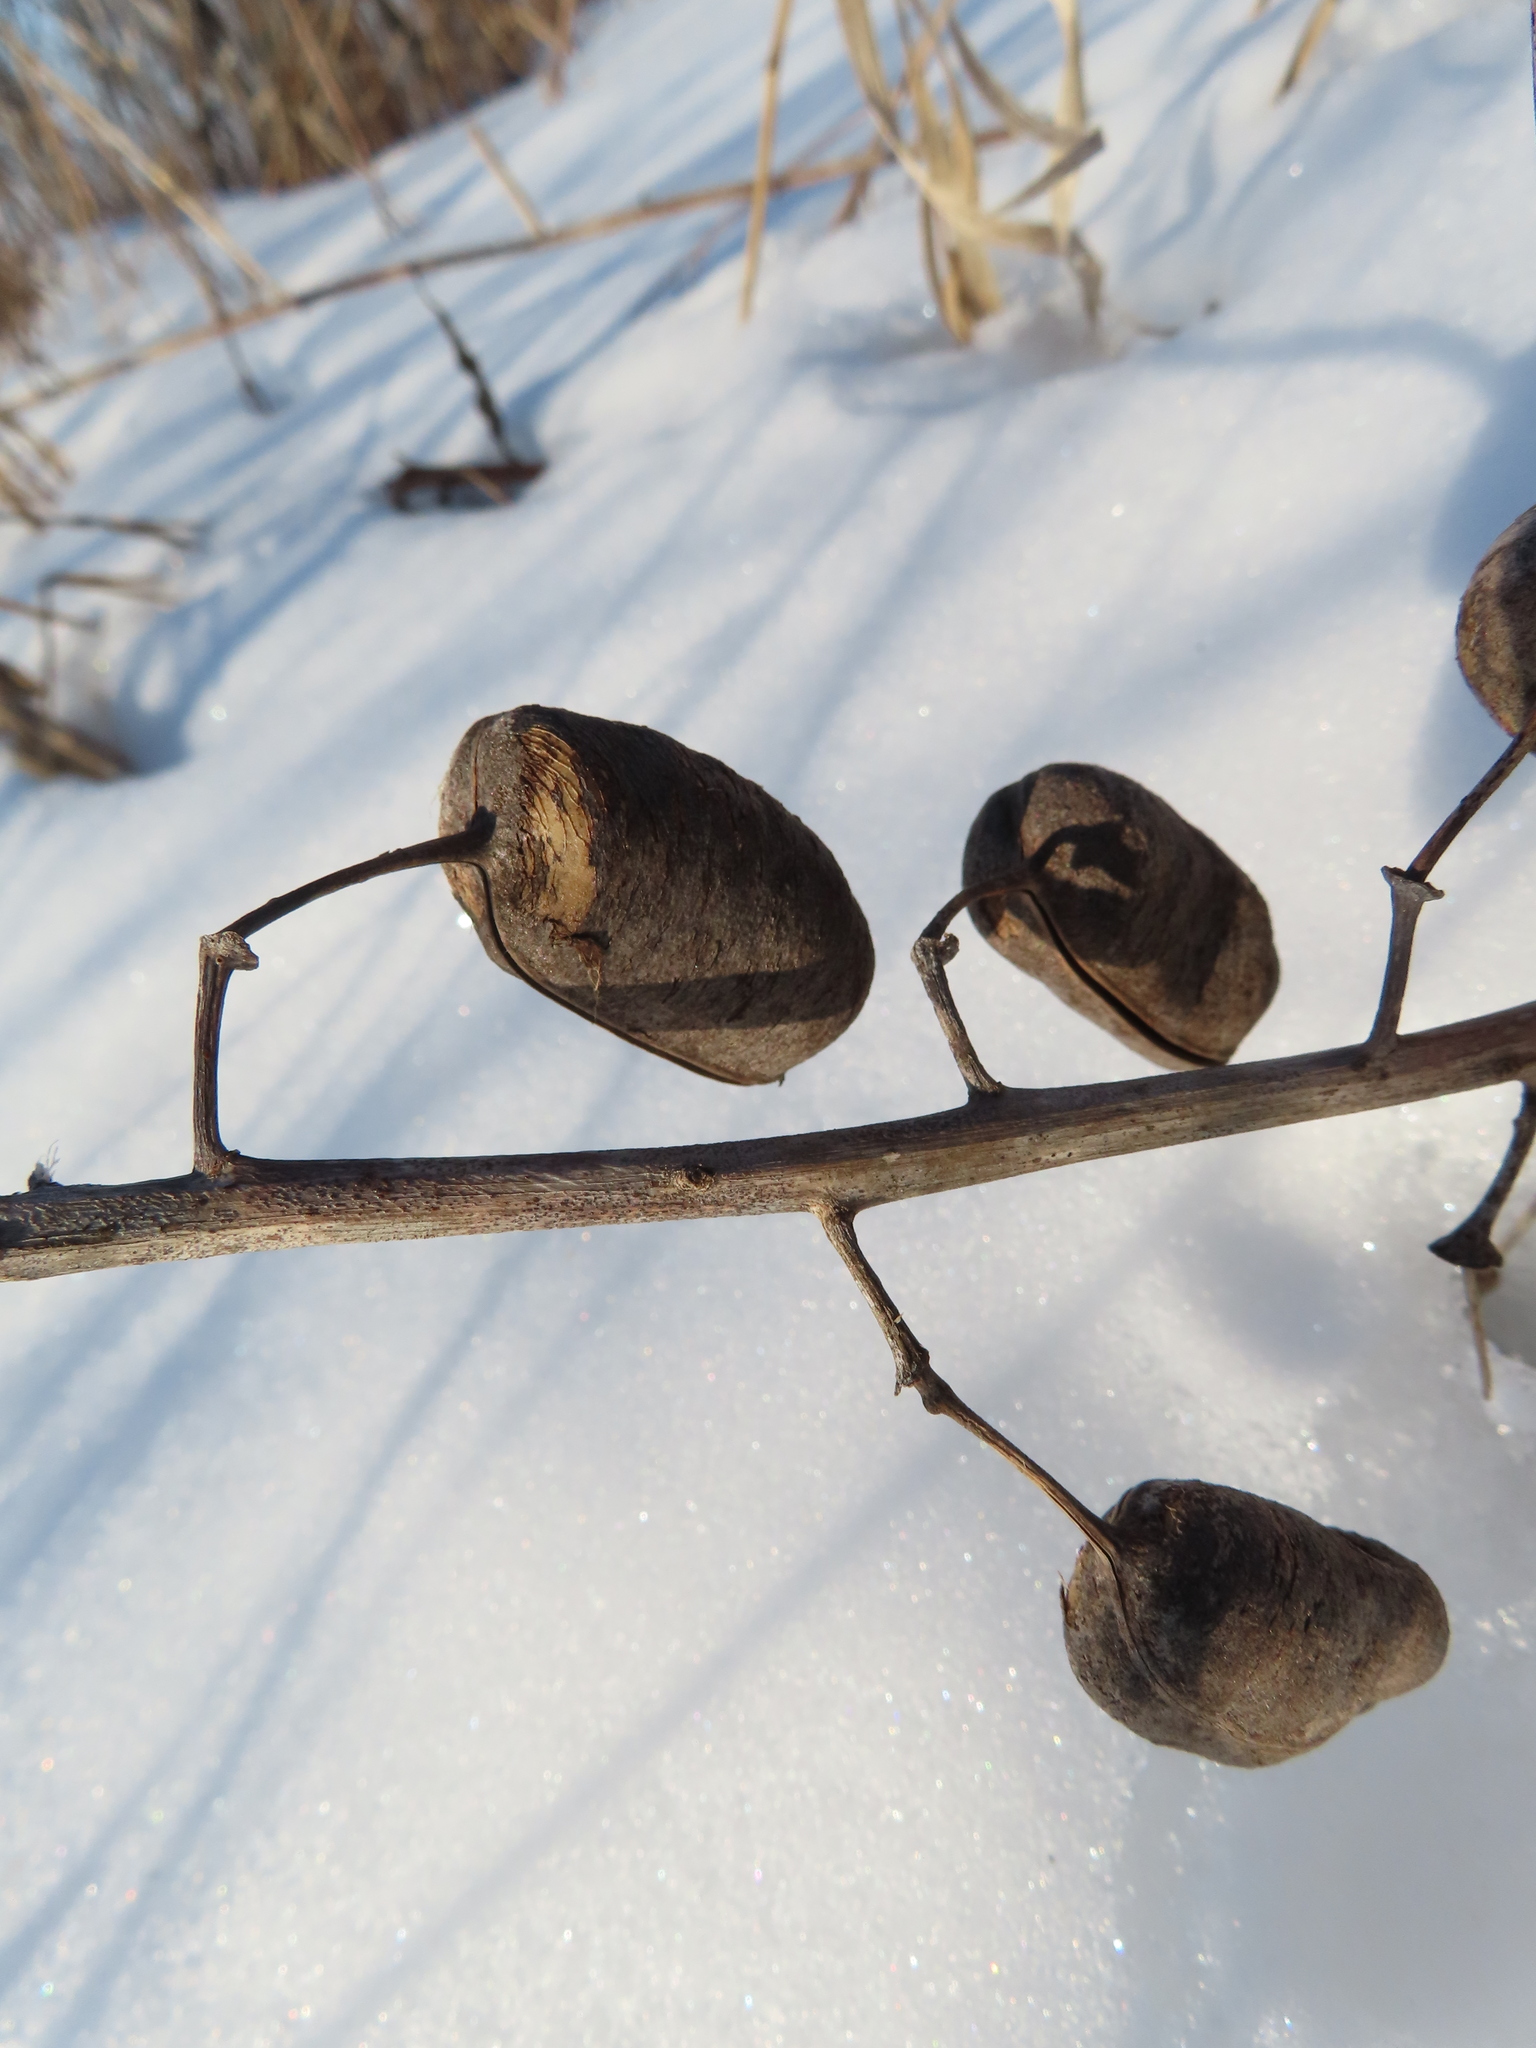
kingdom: Plantae
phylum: Tracheophyta
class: Magnoliopsida
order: Fabales
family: Fabaceae
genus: Baptisia
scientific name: Baptisia alba
